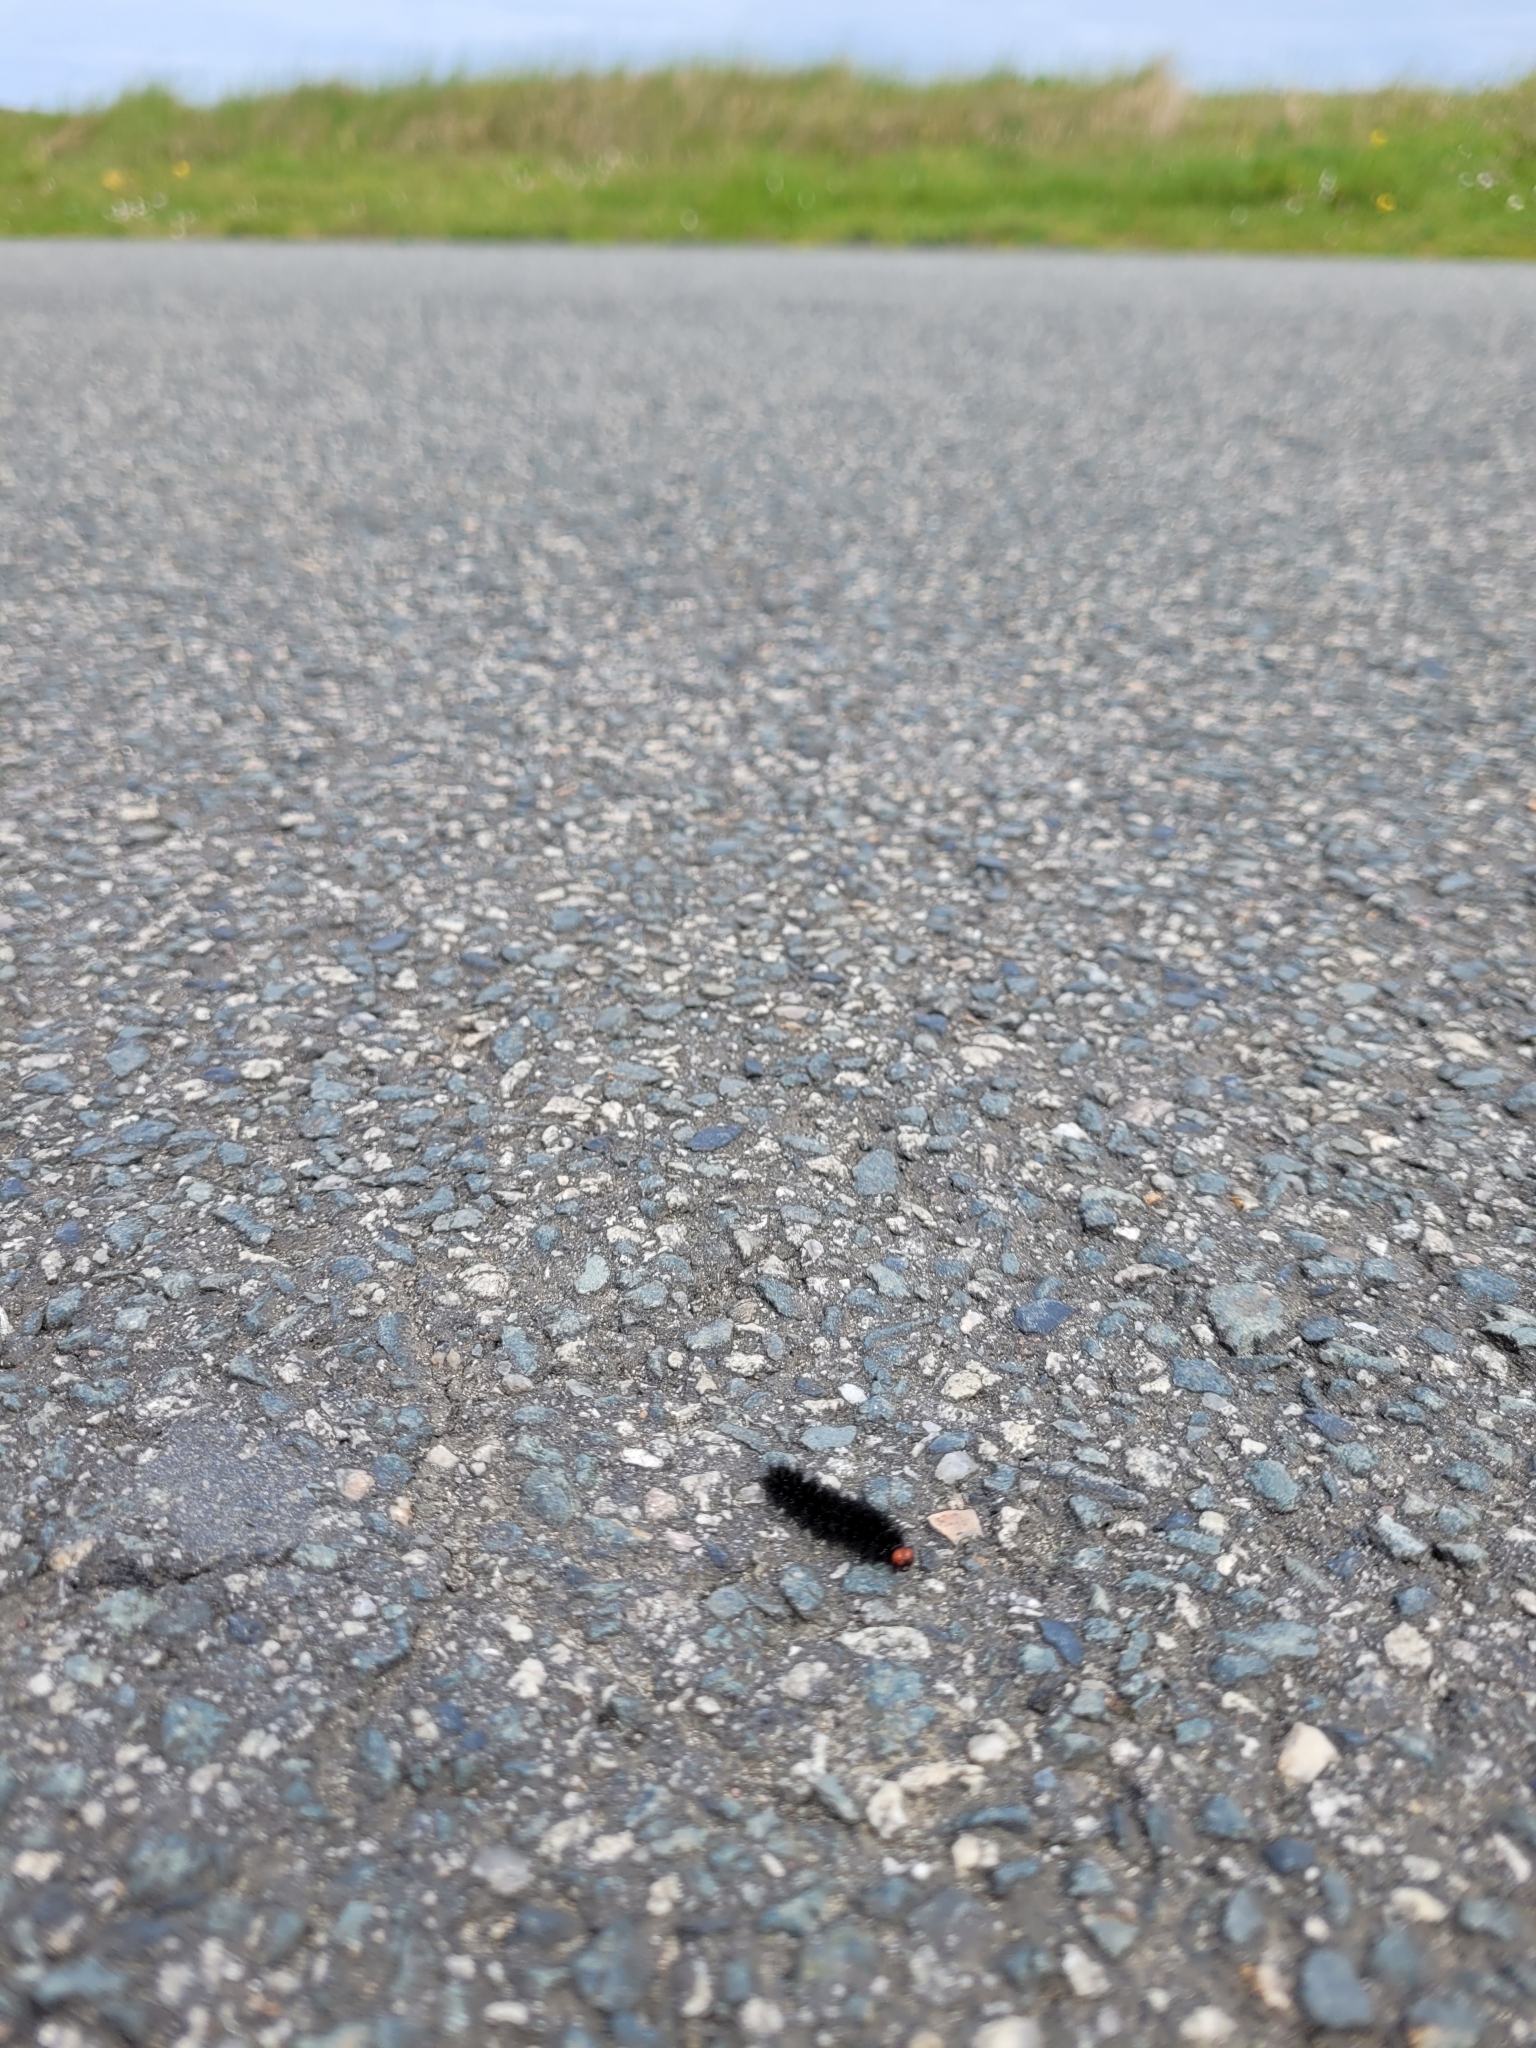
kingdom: Animalia
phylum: Arthropoda
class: Insecta
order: Lepidoptera
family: Nymphalidae
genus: Melitaea
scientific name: Melitaea cinxia
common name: Glanville fritillary
